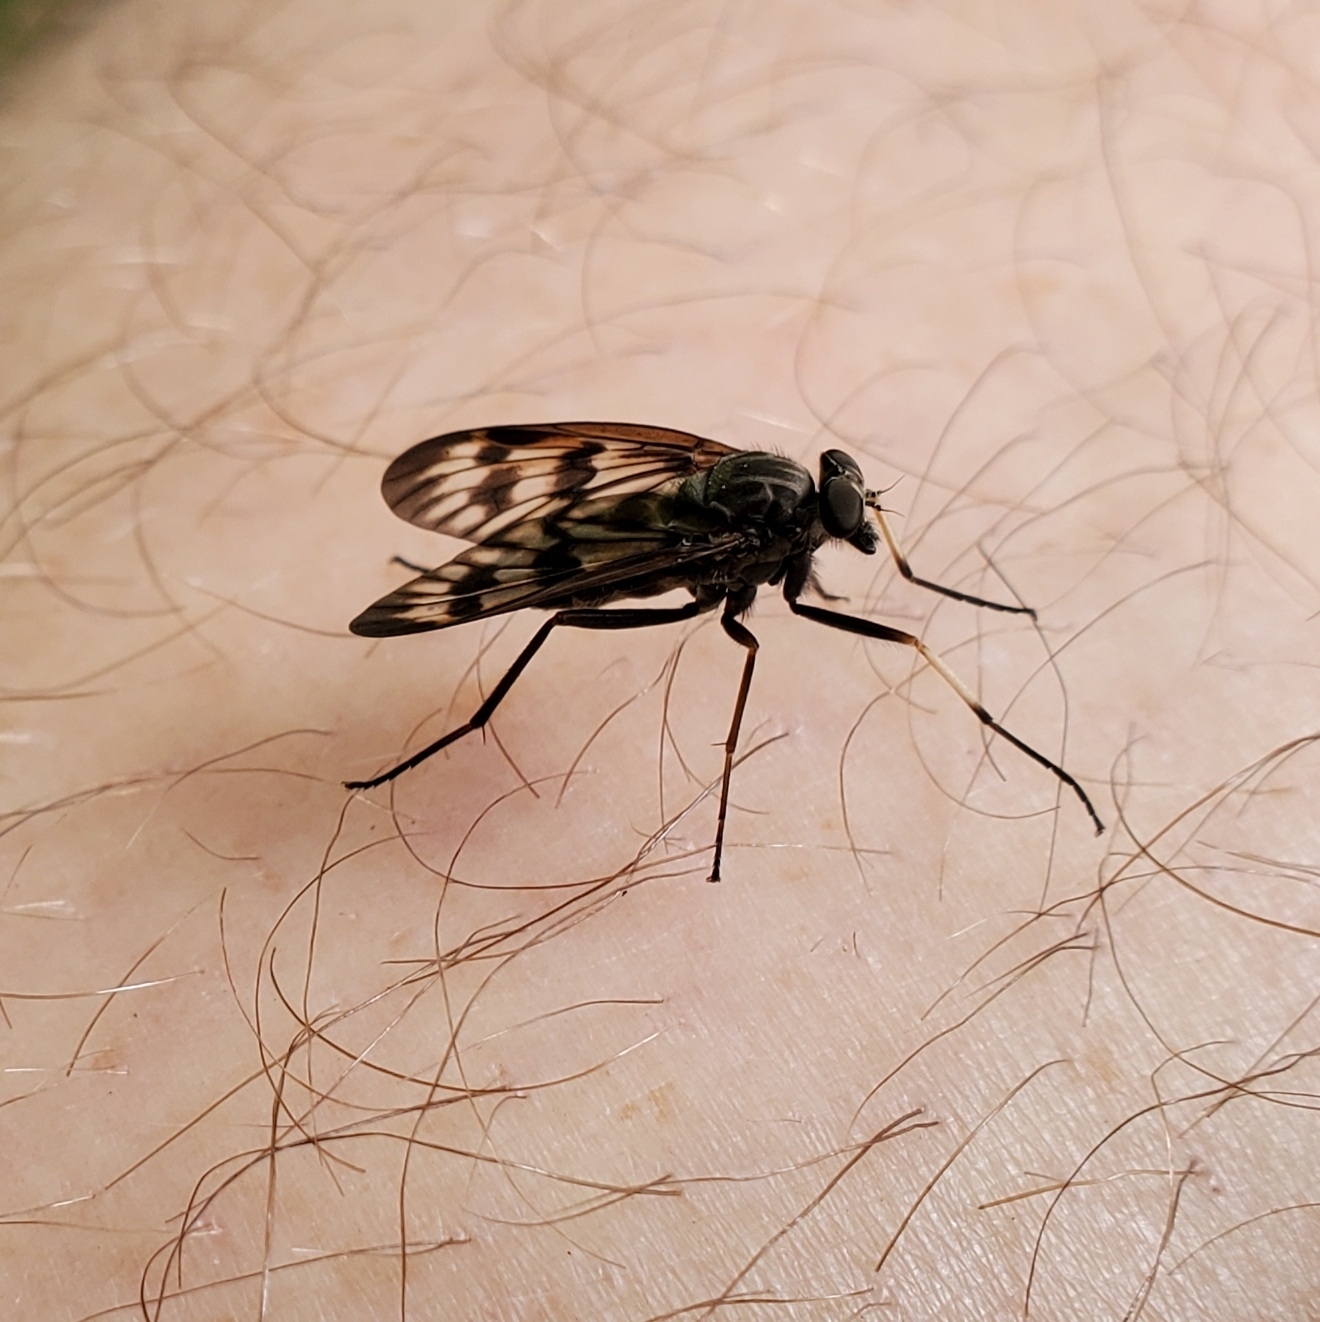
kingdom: Animalia
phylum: Arthropoda
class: Insecta
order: Diptera
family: Rhagionidae
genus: Rhagio
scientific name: Rhagio mystaceus
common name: Common snipe fly
